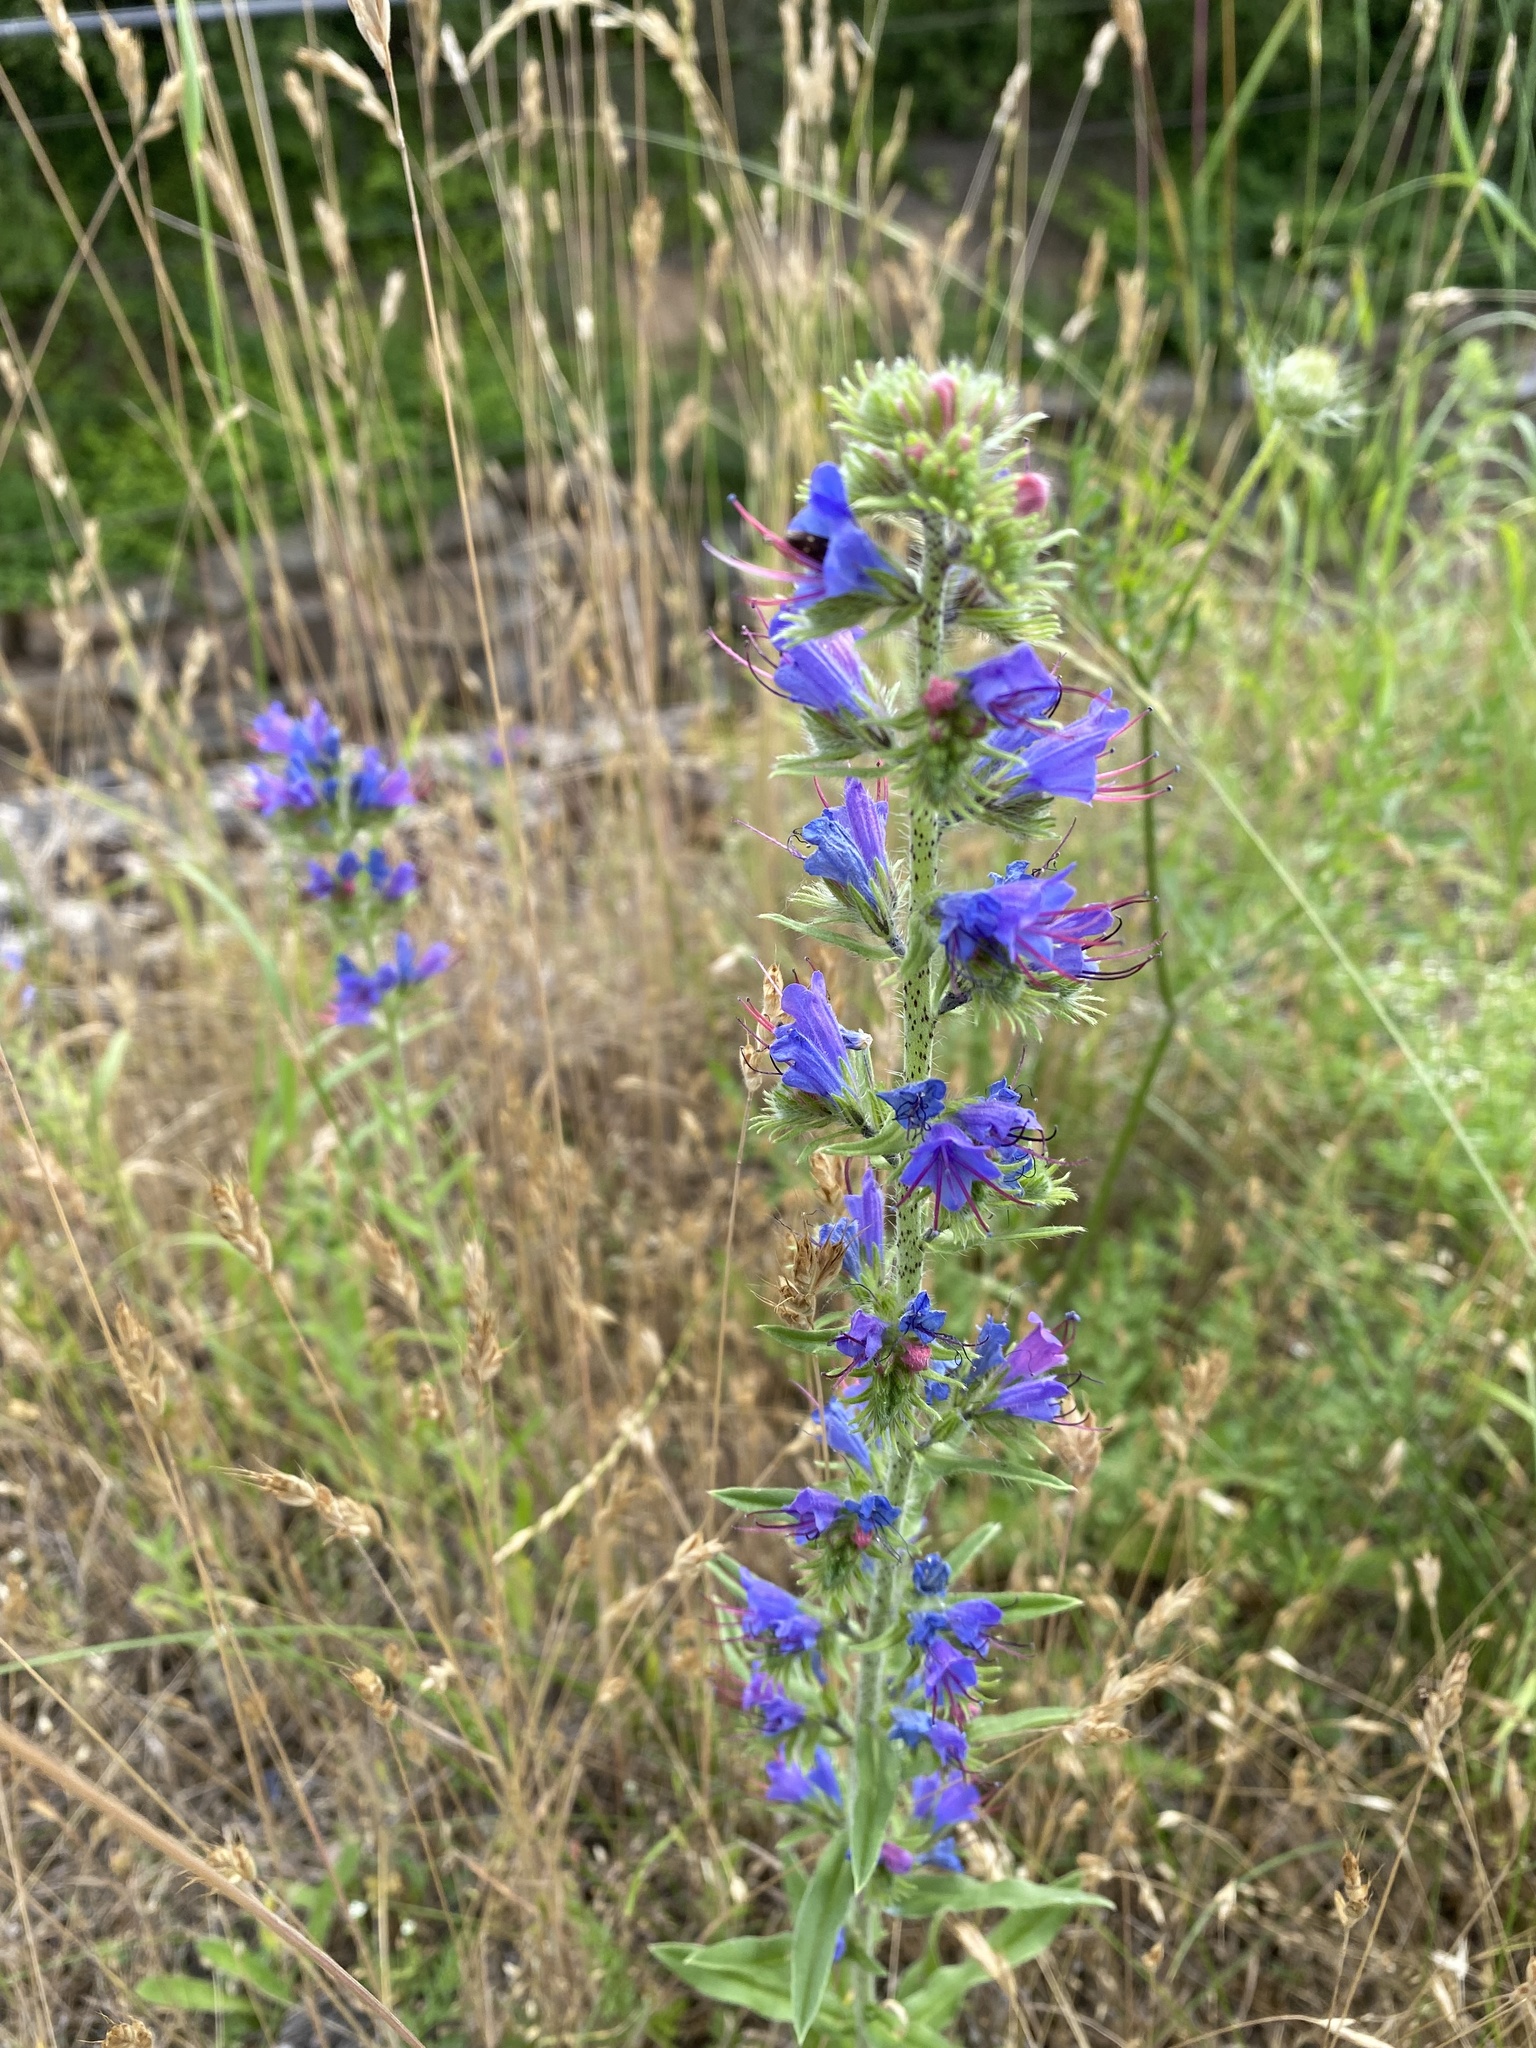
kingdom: Plantae
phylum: Tracheophyta
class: Magnoliopsida
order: Boraginales
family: Boraginaceae
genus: Echium
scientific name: Echium vulgare
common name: Common viper's bugloss
